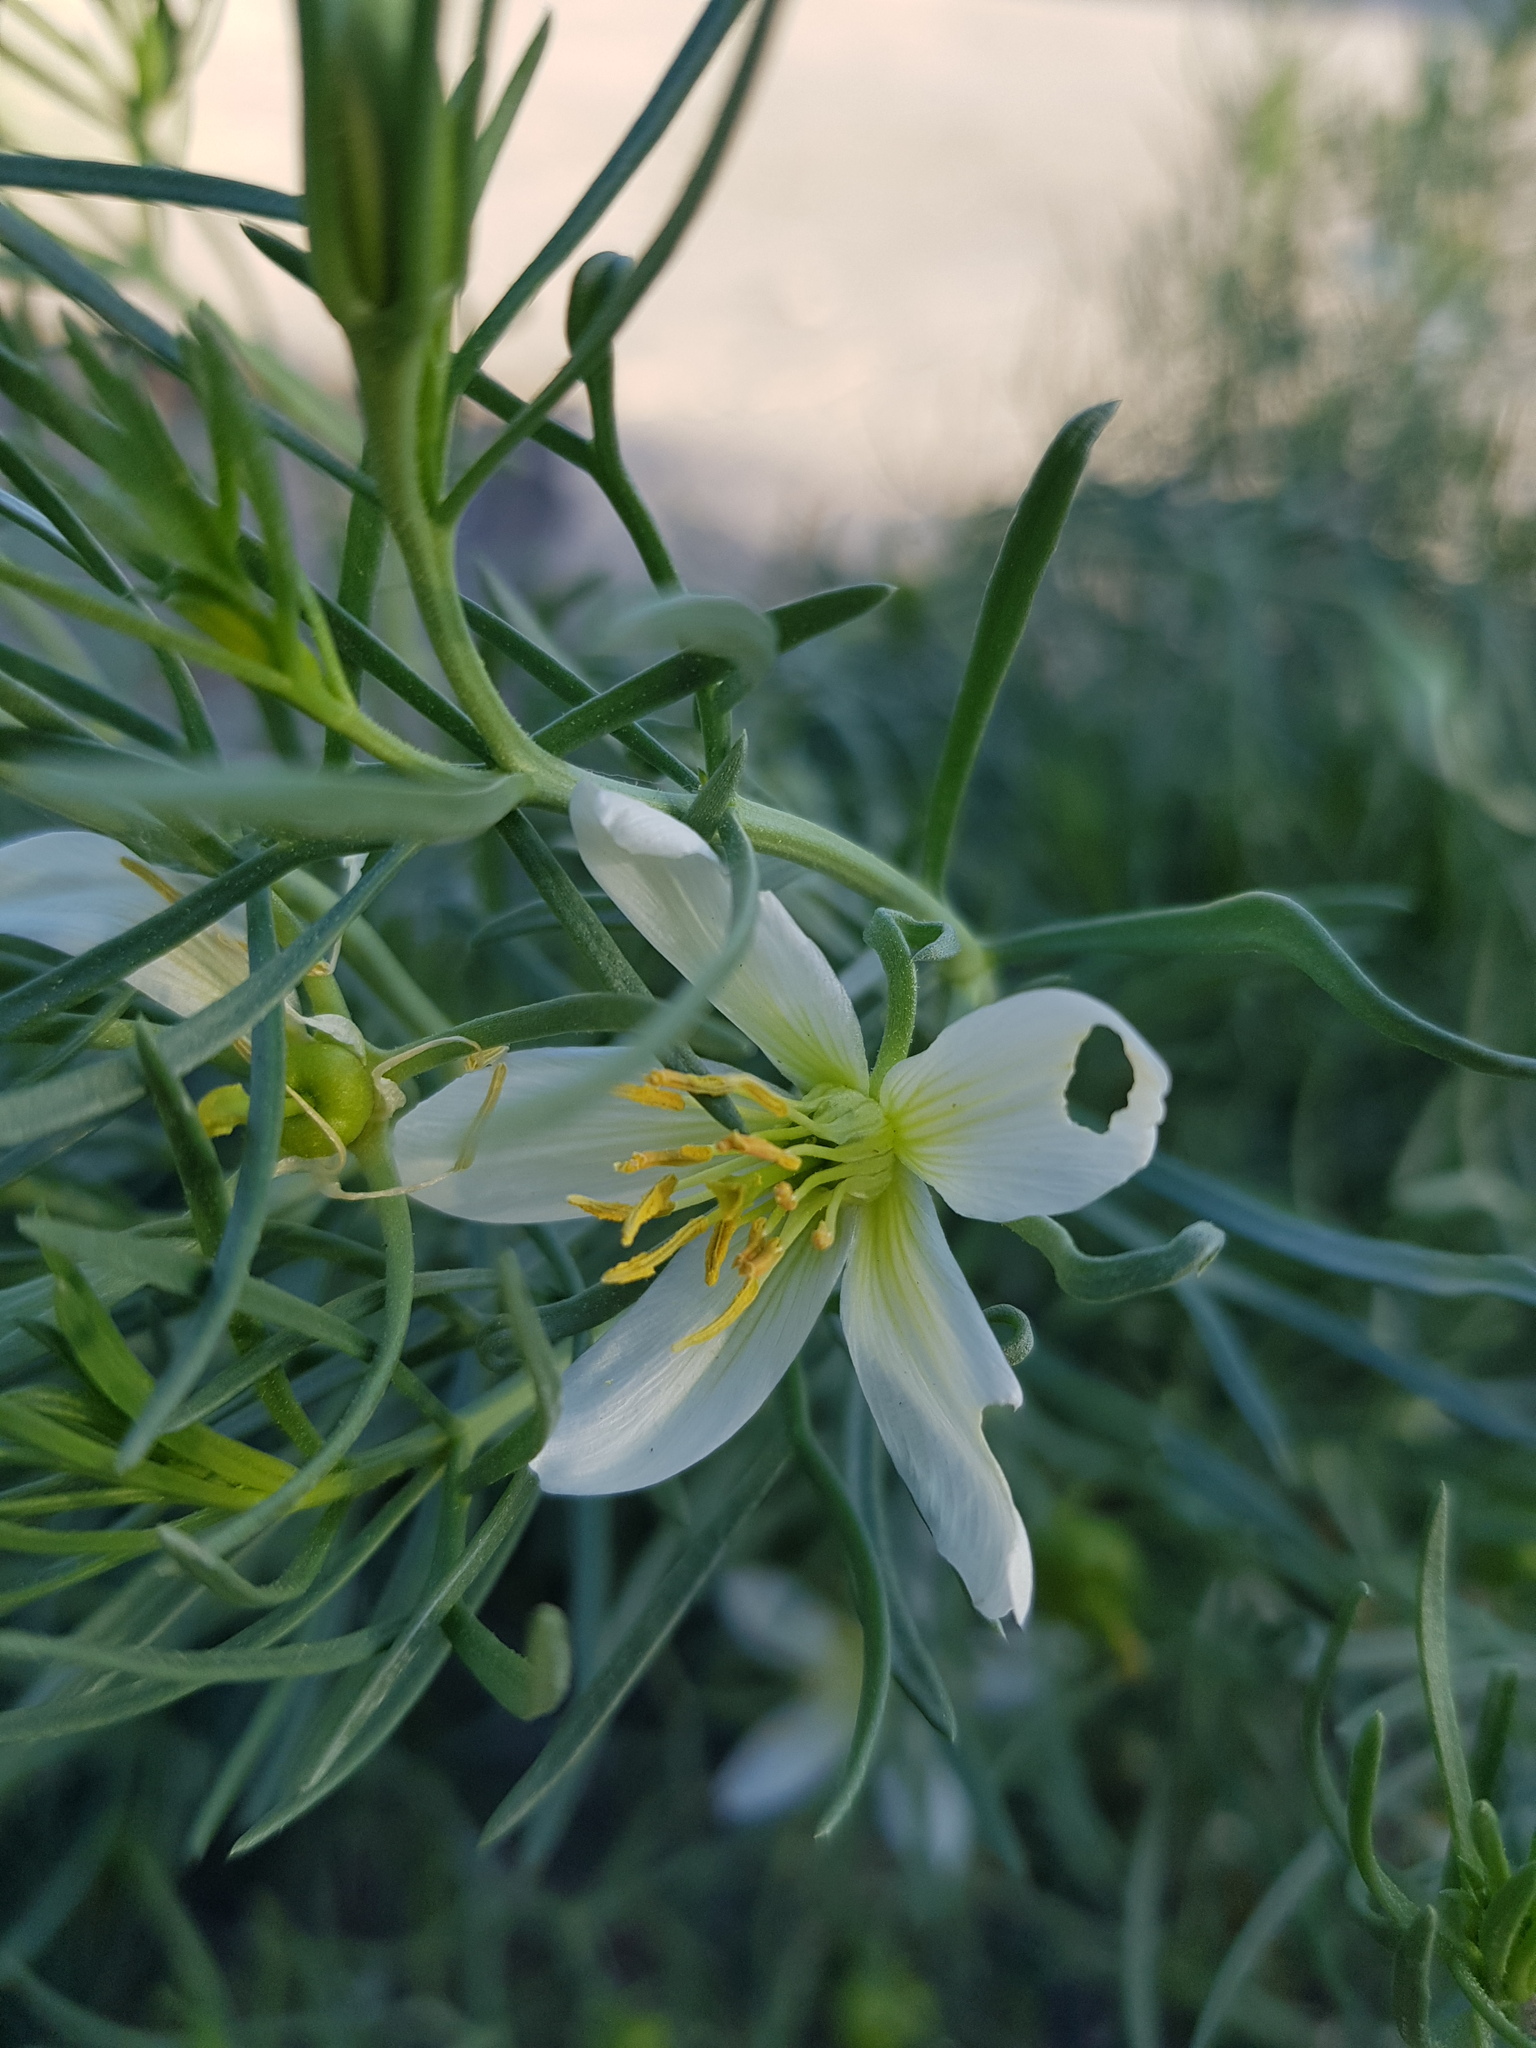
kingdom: Plantae
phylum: Tracheophyta
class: Magnoliopsida
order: Sapindales
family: Tetradiclidaceae
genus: Peganum
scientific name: Peganum harmala
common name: Harmal peganum
